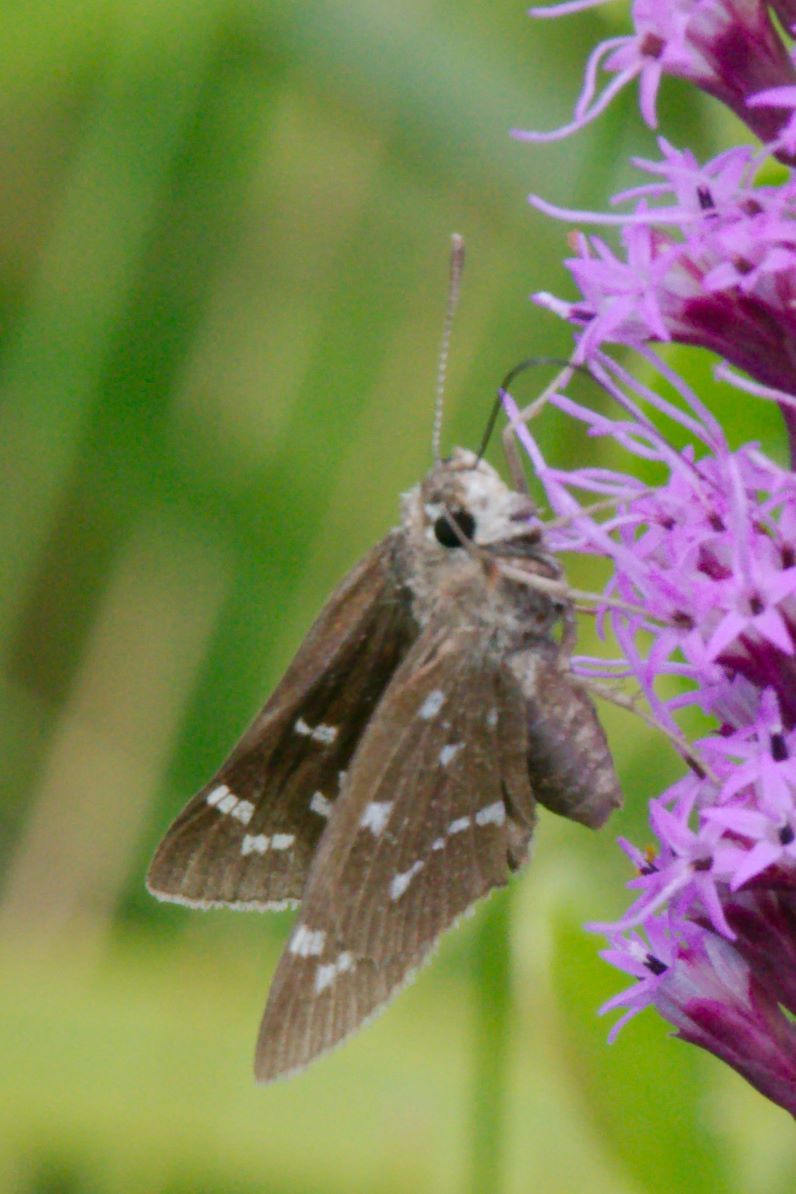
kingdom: Animalia
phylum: Arthropoda
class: Insecta
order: Lepidoptera
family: Hesperiidae
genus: Atrytonopsis
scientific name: Atrytonopsis loammi
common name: Loammi skipper
